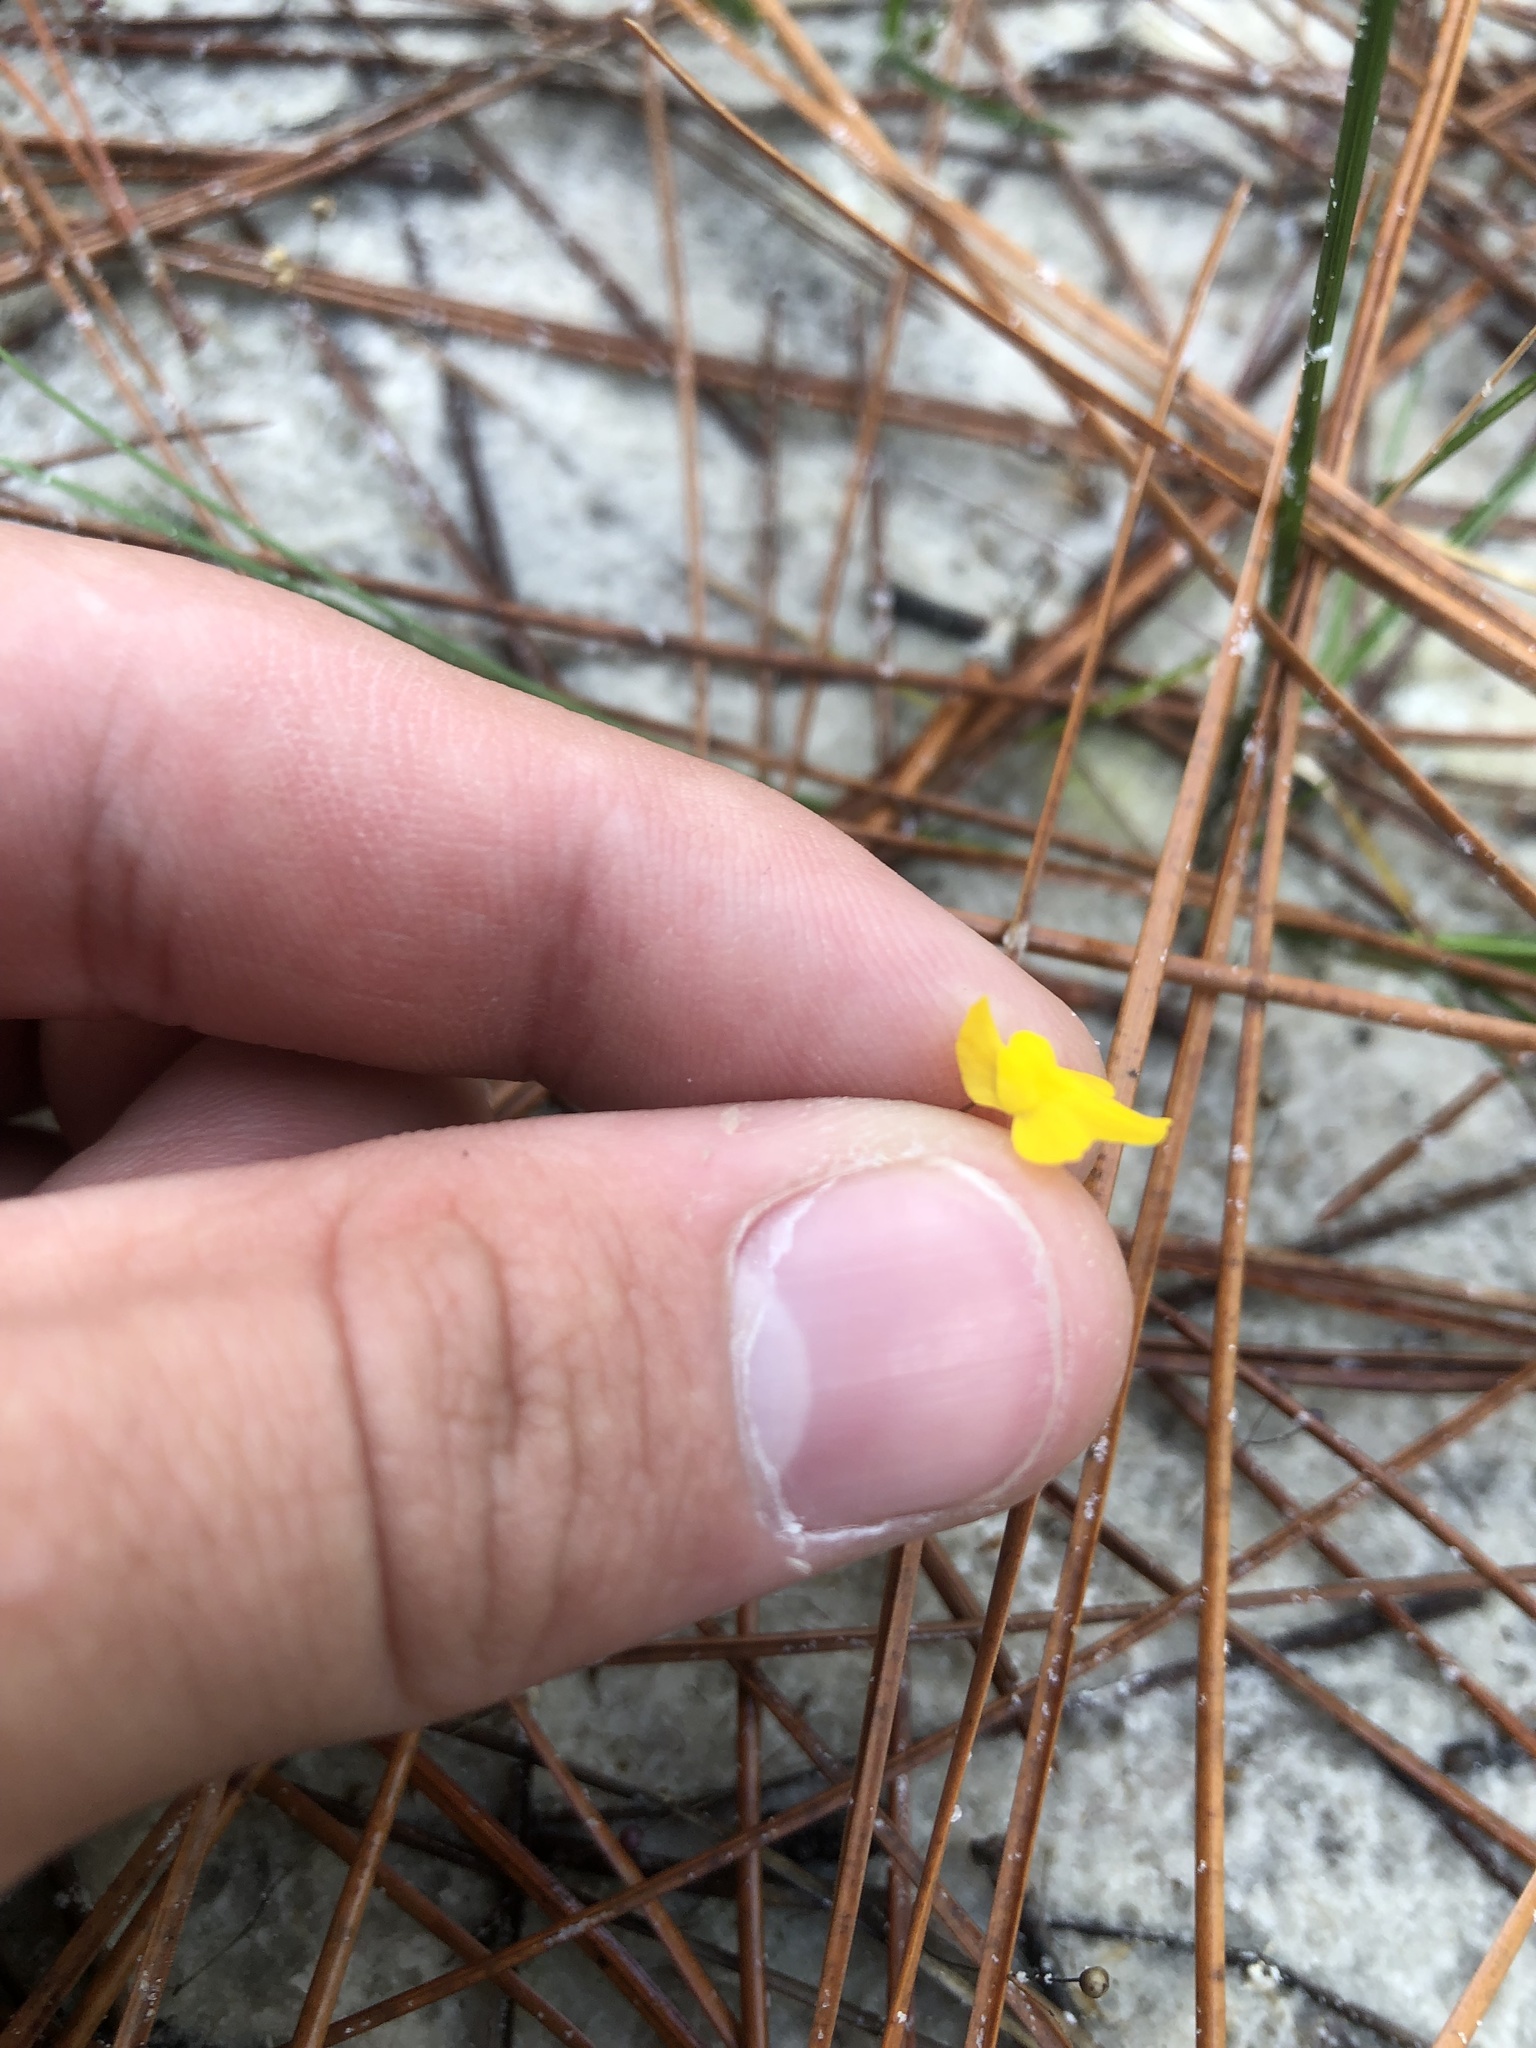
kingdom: Plantae
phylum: Tracheophyta
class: Magnoliopsida
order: Lamiales
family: Lentibulariaceae
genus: Utricularia
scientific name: Utricularia subulata
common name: Tiny bladderwort
